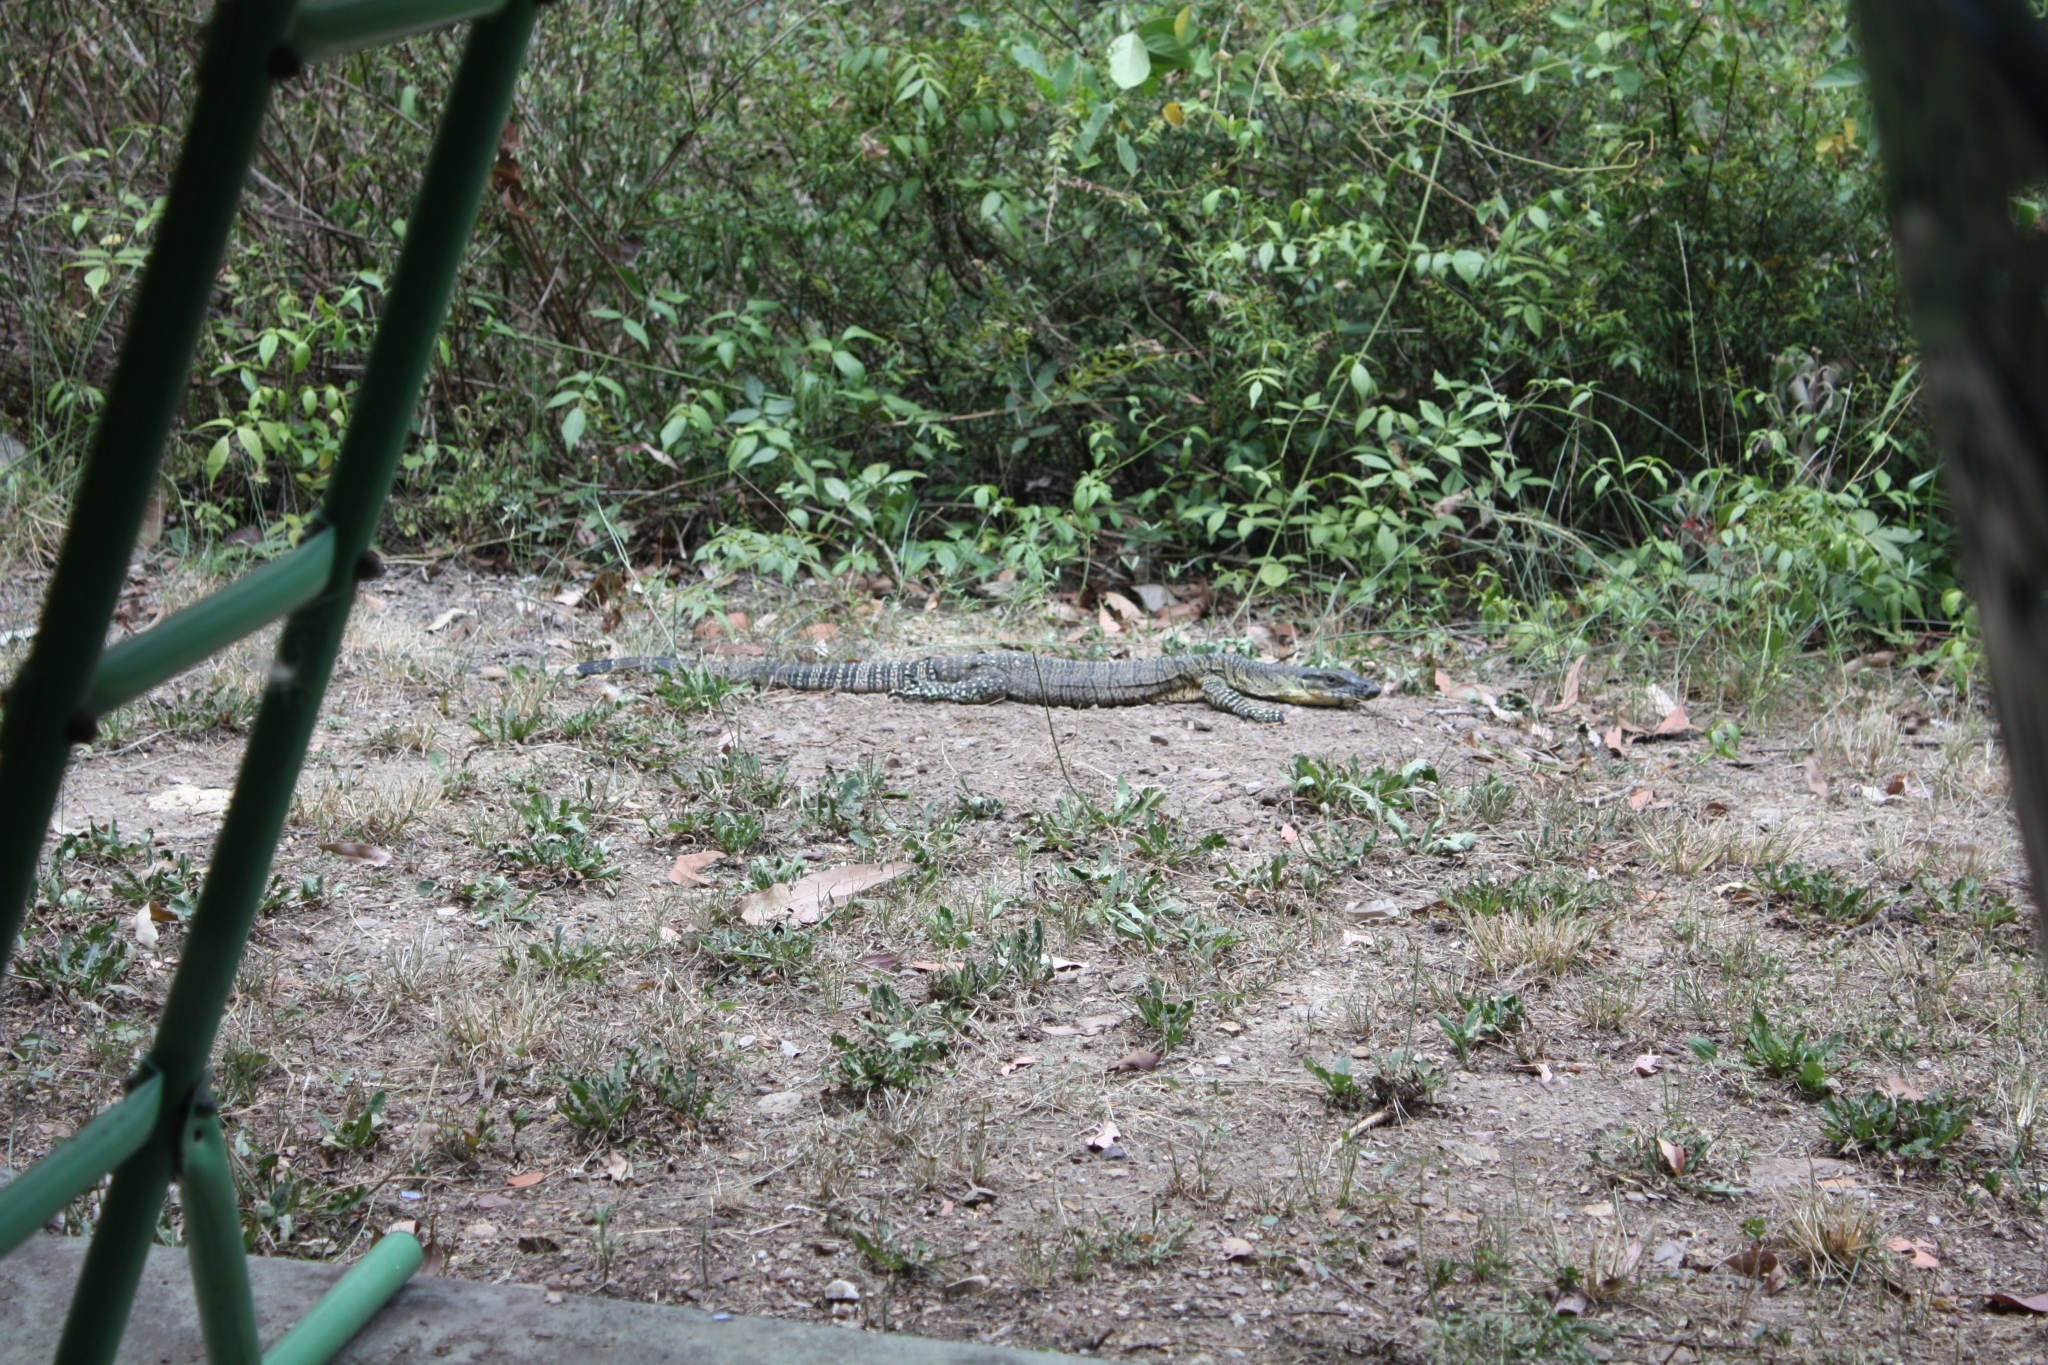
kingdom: Animalia
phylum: Chordata
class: Squamata
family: Varanidae
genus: Varanus
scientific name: Varanus varius
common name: Lace monitor
